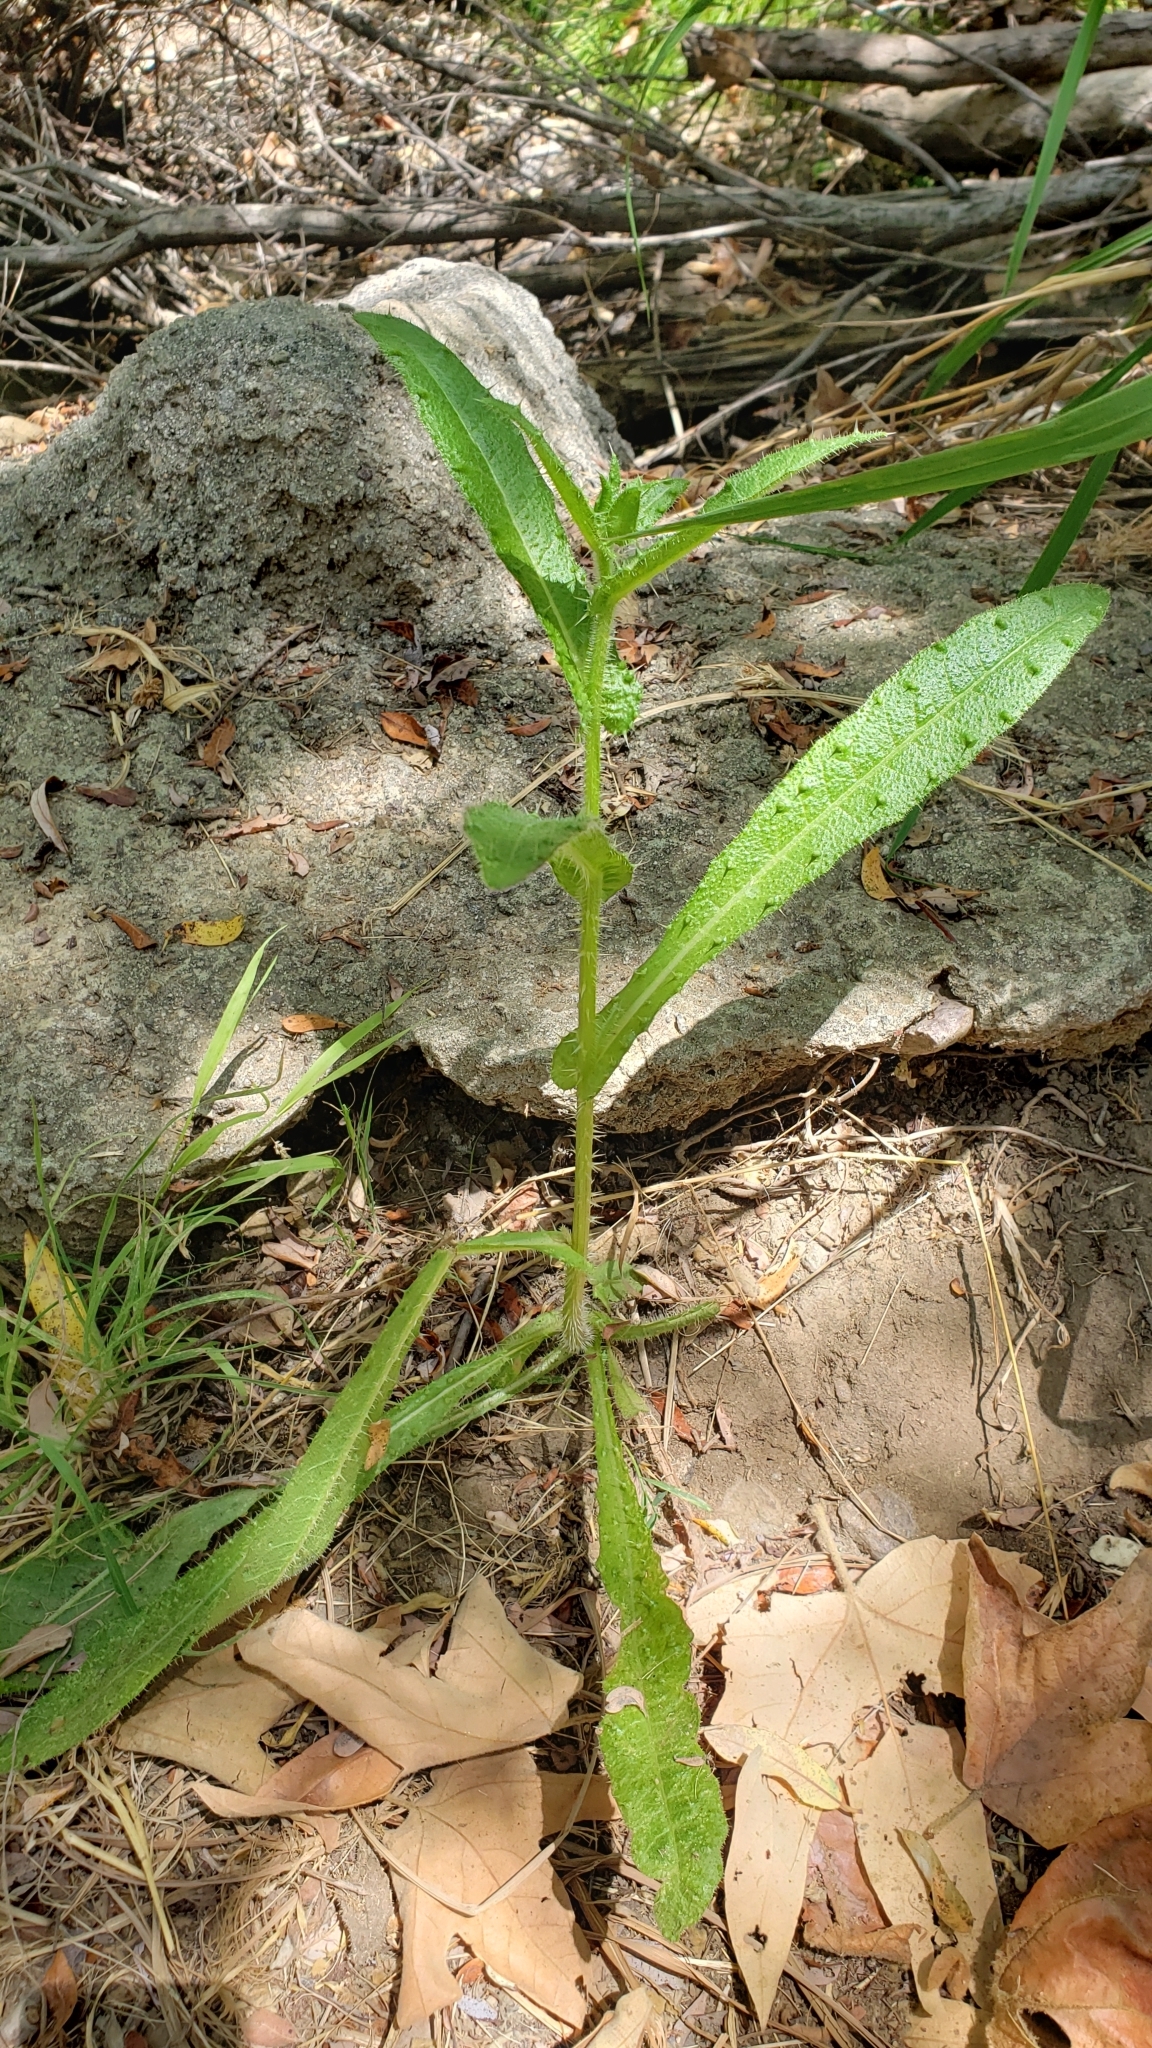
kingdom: Plantae
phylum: Tracheophyta
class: Magnoliopsida
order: Asterales
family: Asteraceae
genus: Helminthotheca
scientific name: Helminthotheca echioides
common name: Ox-tongue
